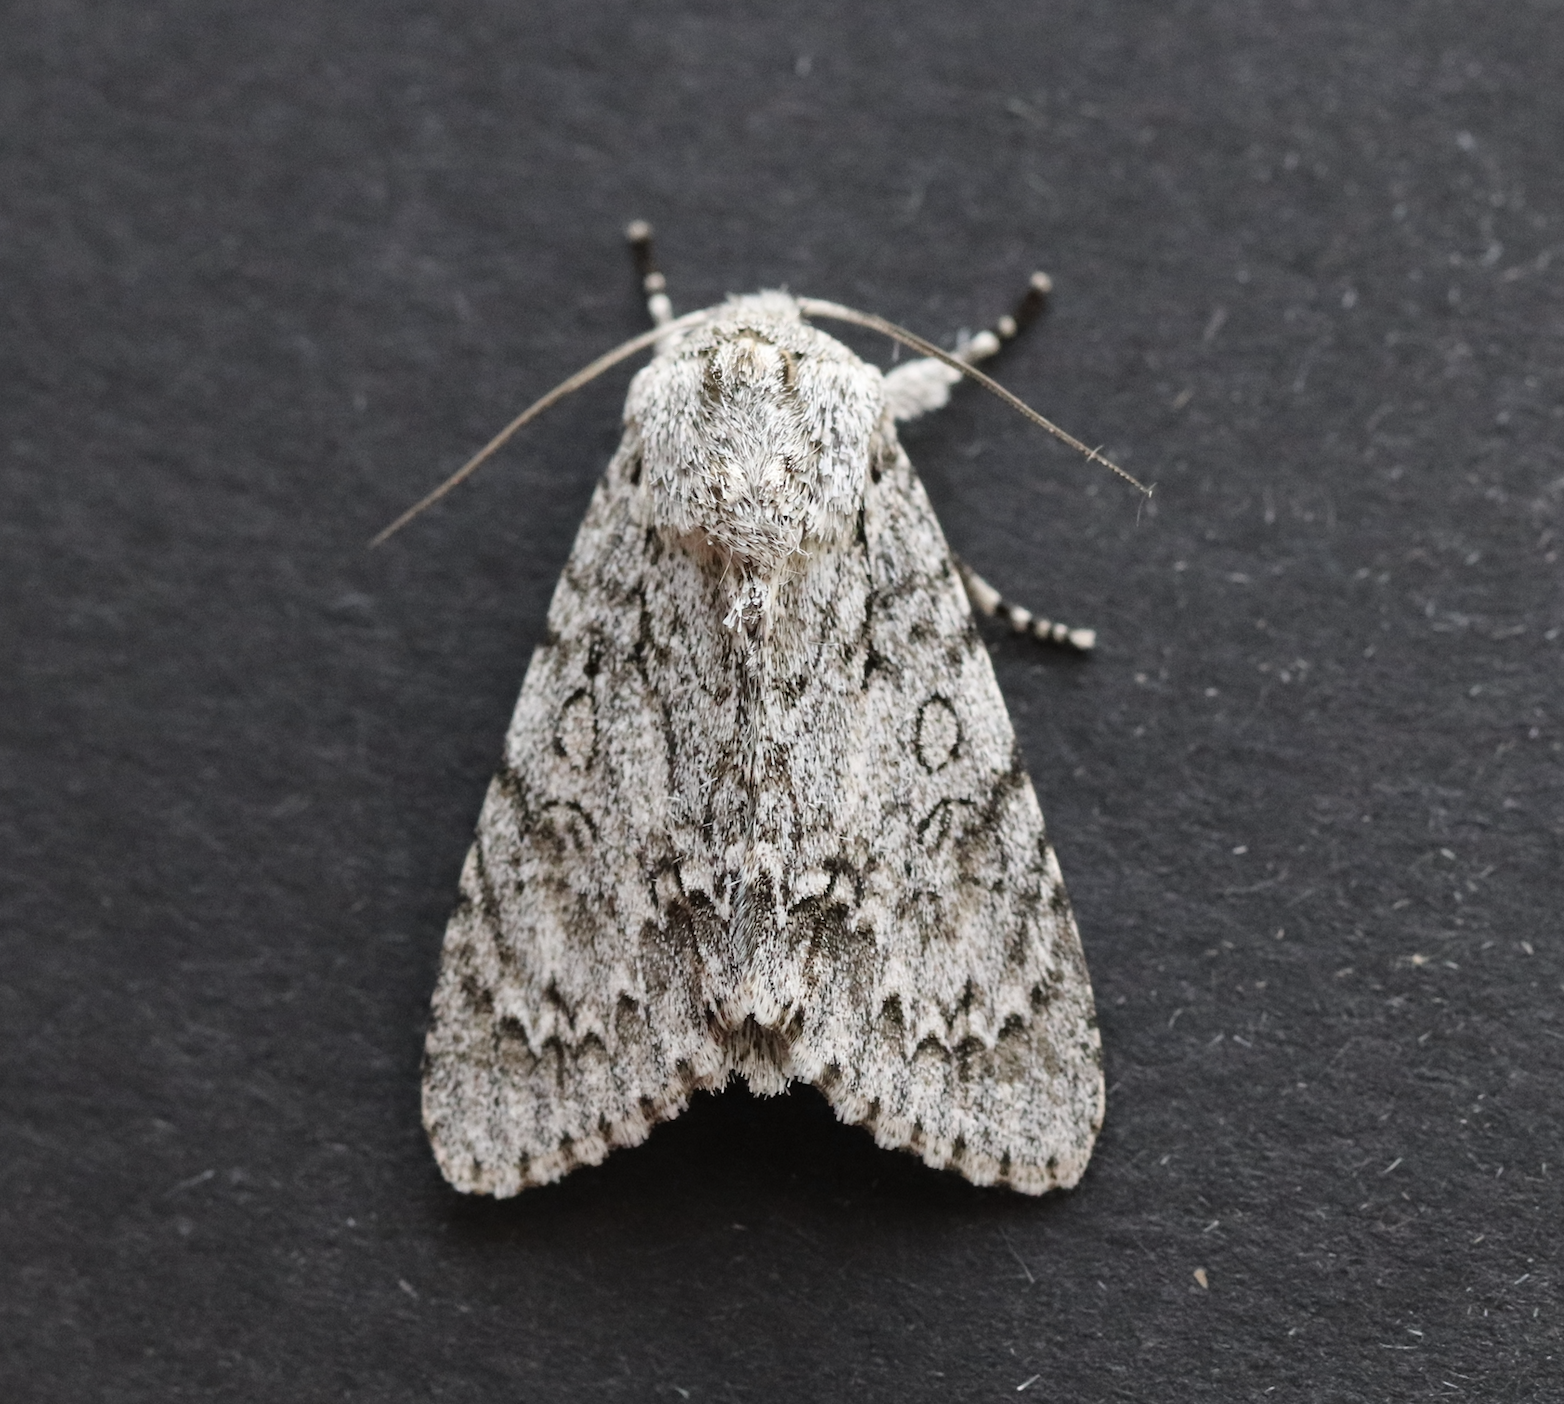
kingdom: Animalia
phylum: Arthropoda
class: Insecta
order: Lepidoptera
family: Noctuidae
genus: Acronicta
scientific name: Acronicta aceris
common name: Sycamore
